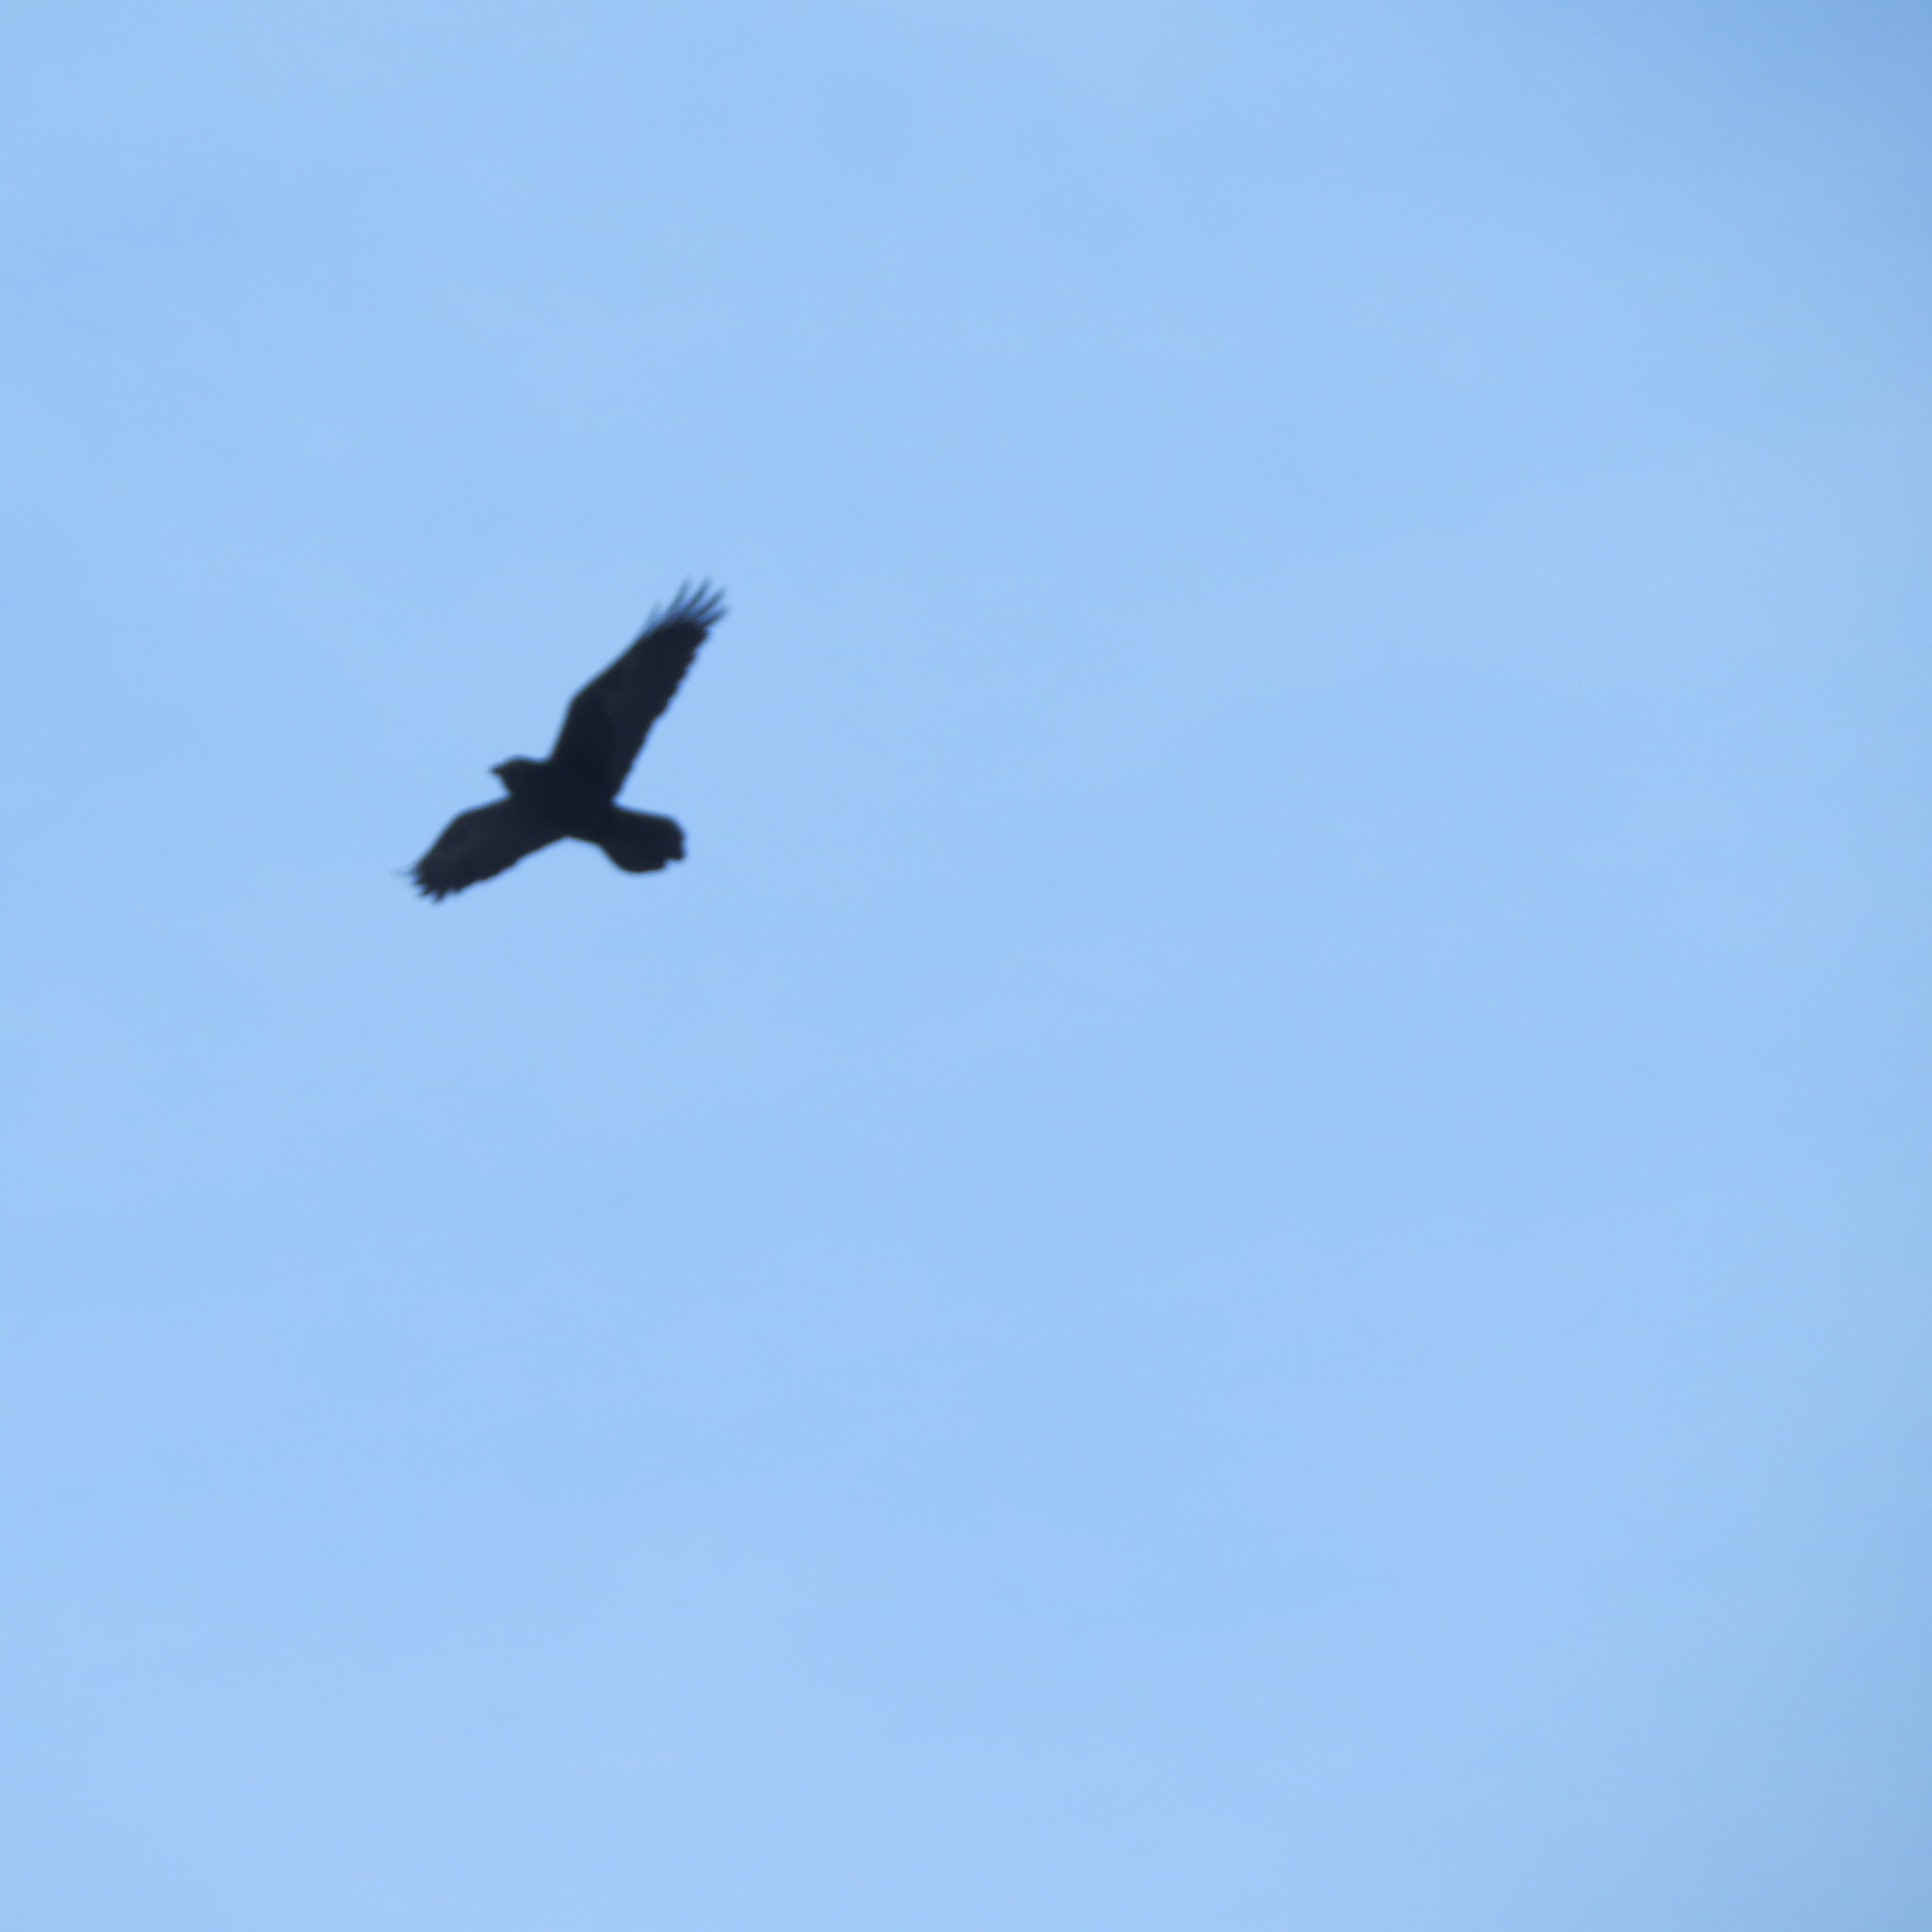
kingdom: Animalia
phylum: Chordata
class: Aves
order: Passeriformes
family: Corvidae
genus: Corvus
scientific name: Corvus corax
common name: Common raven
